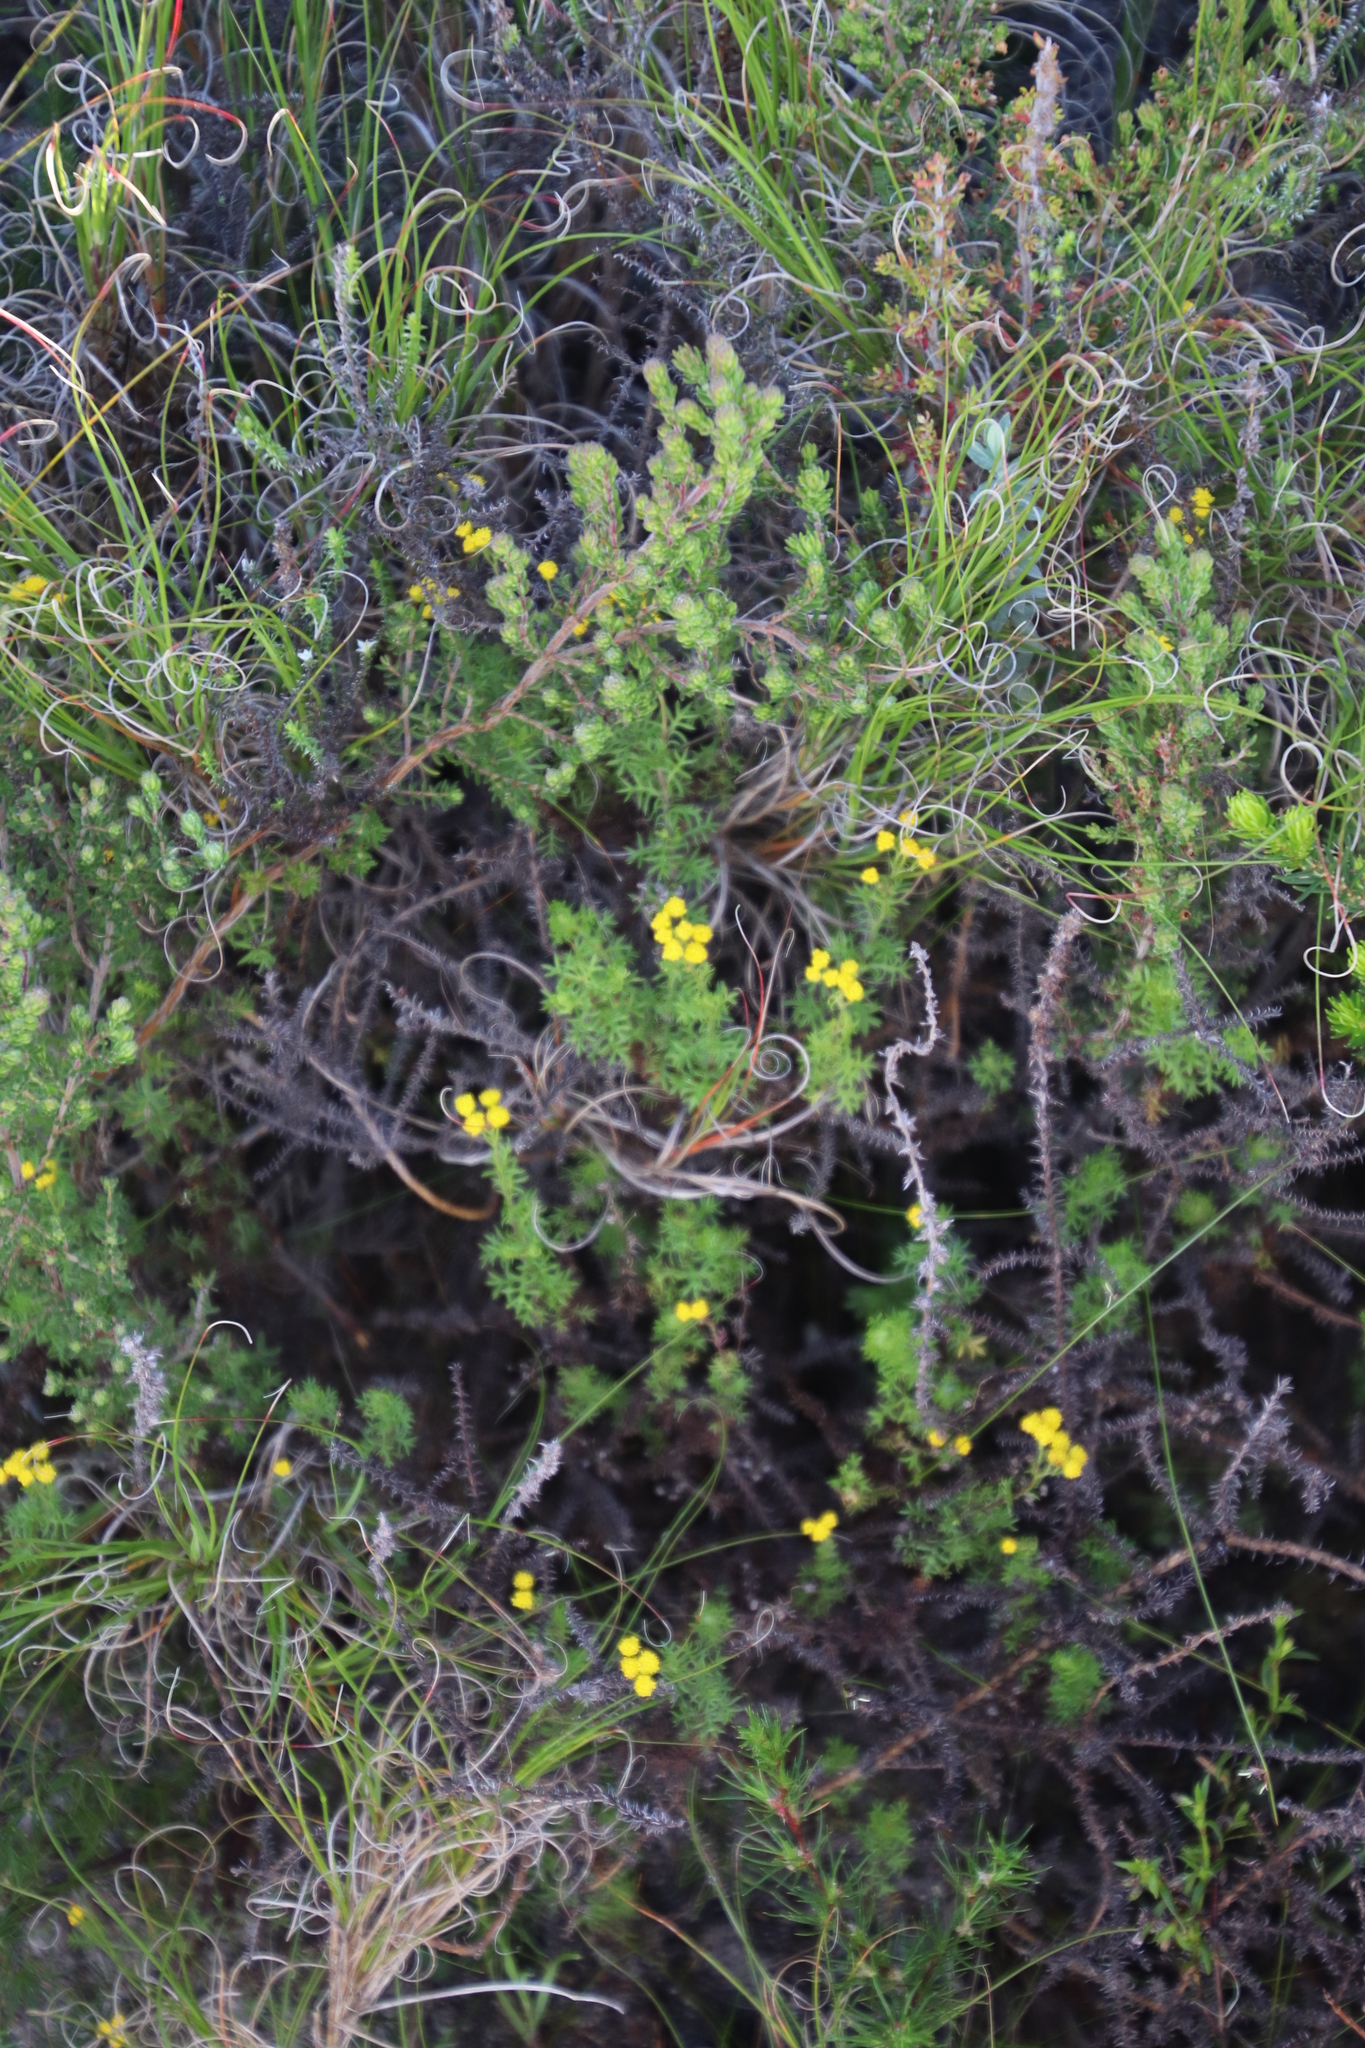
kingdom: Plantae
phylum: Tracheophyta
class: Magnoliopsida
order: Asterales
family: Asteraceae
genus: Hippia
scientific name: Hippia pilosa
